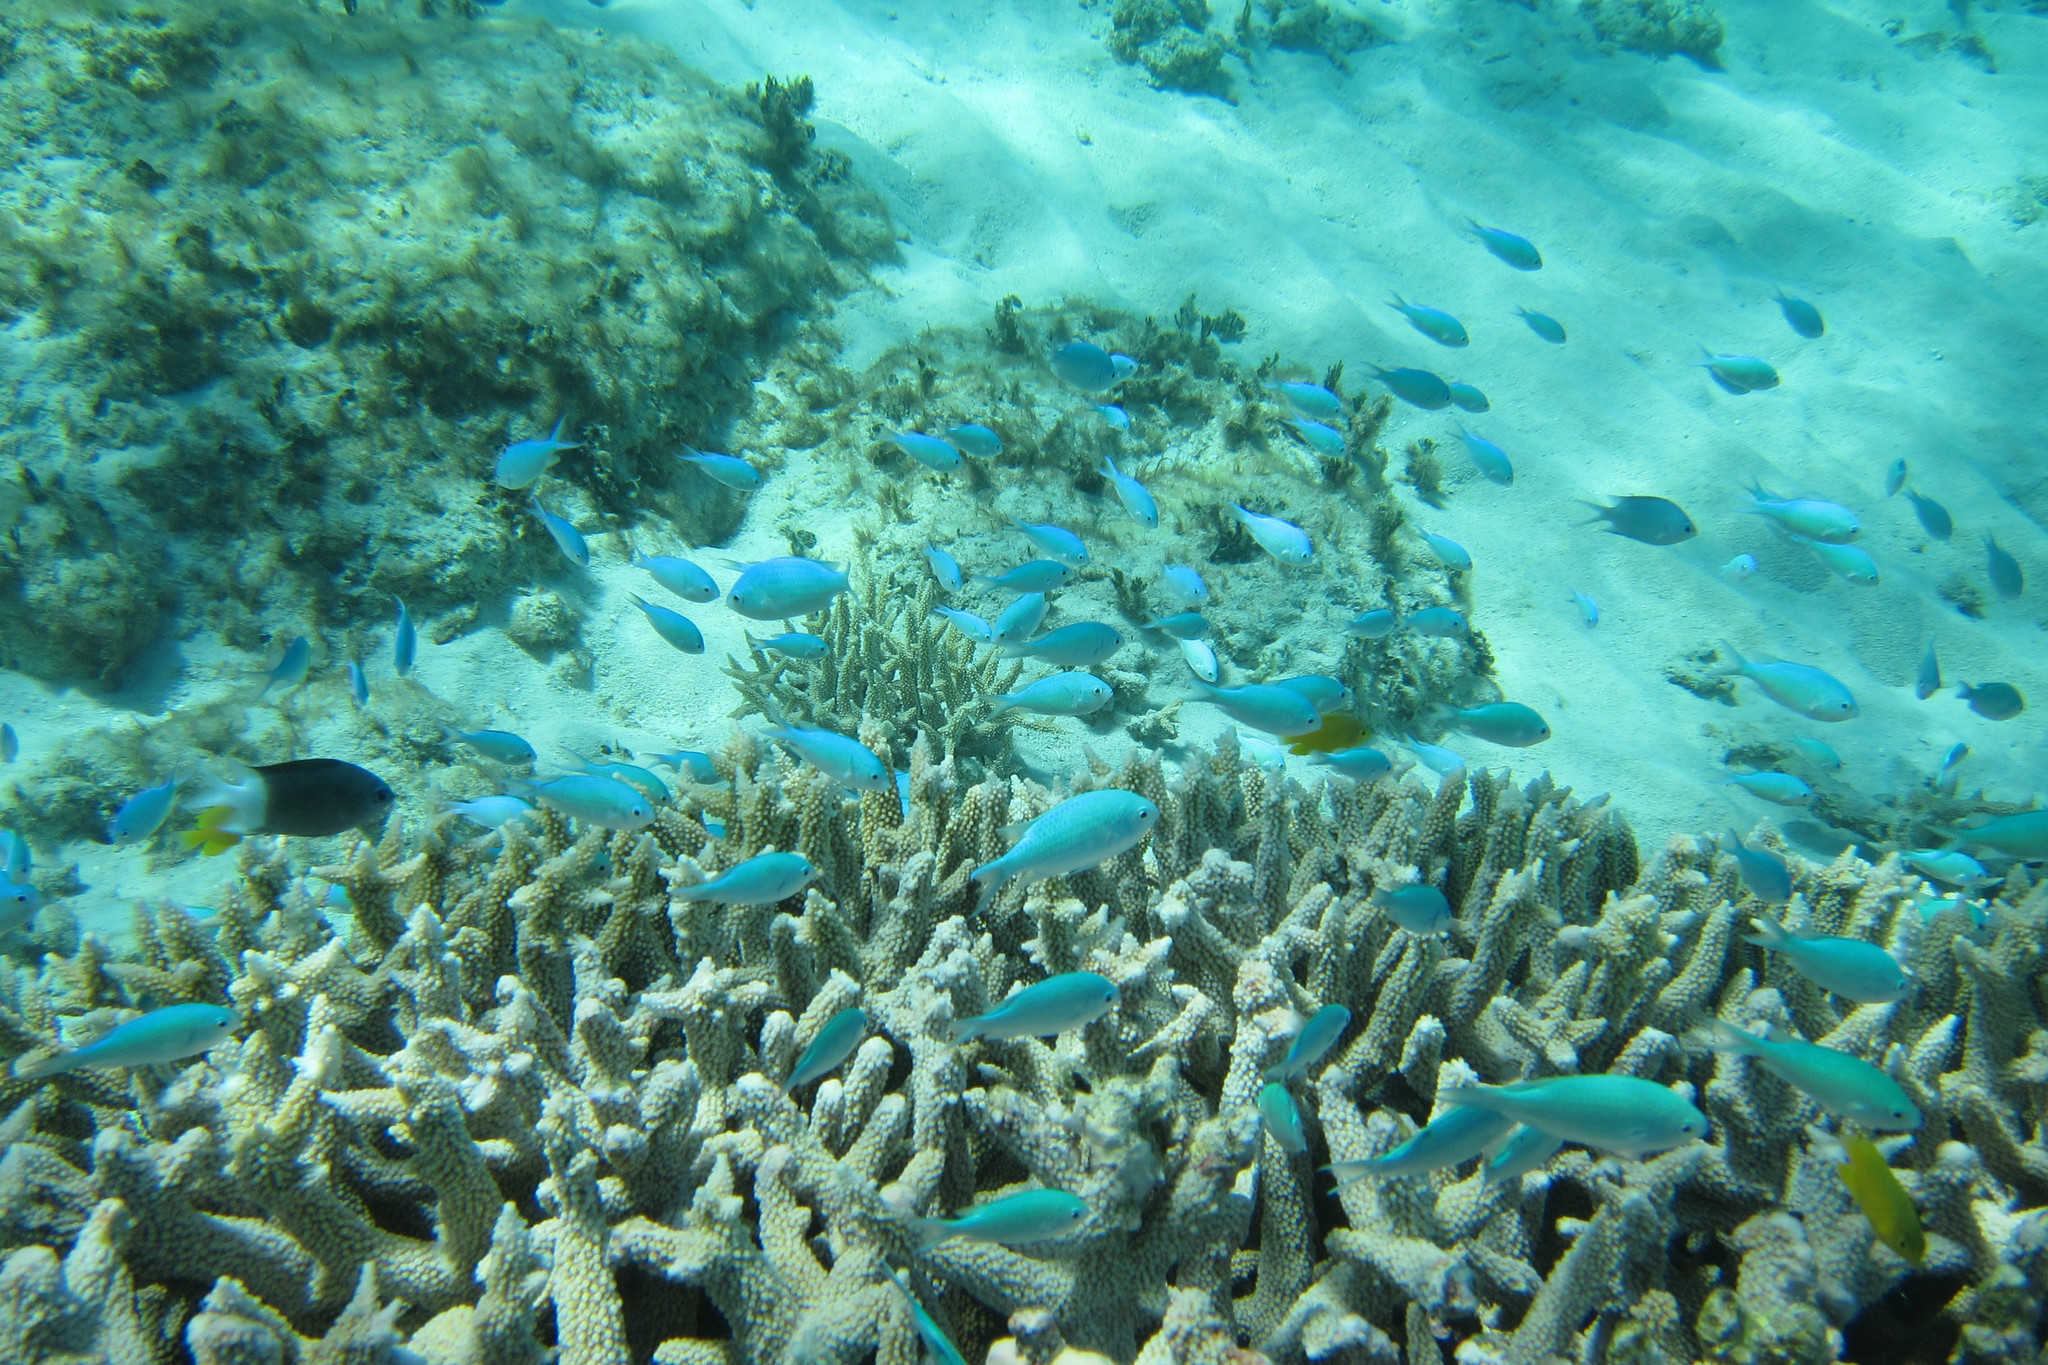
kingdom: Animalia
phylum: Chordata
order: Perciformes
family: Pomacentridae
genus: Acanthochromis
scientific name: Acanthochromis polyacanthus
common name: Spiny chromis
